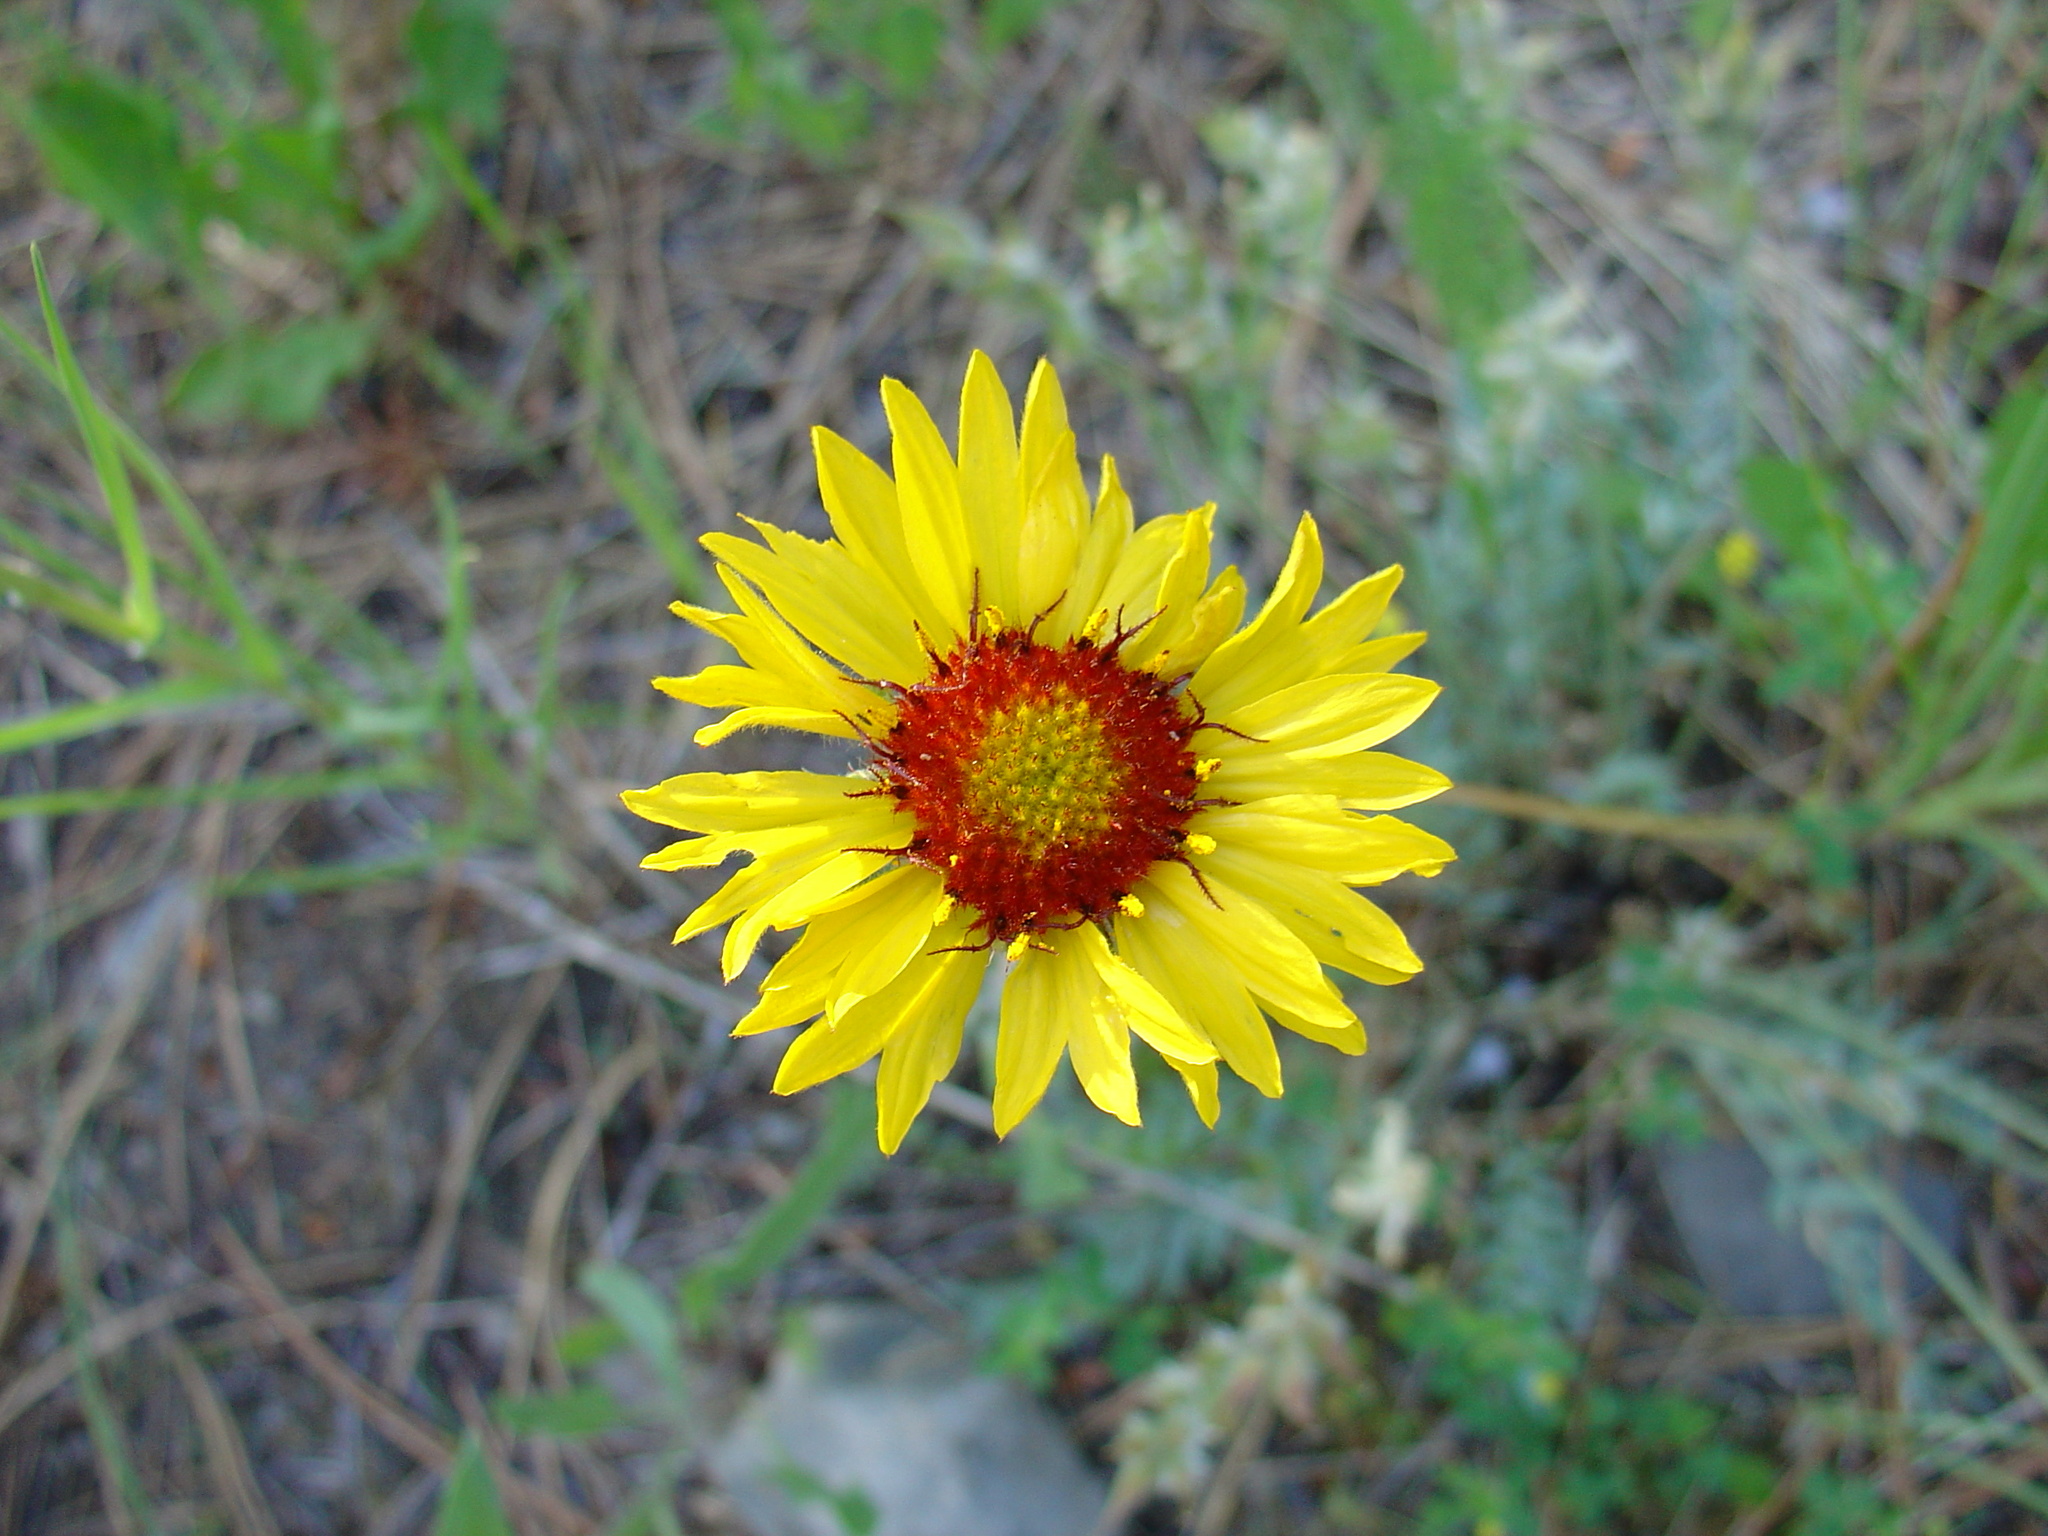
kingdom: Plantae
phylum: Tracheophyta
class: Magnoliopsida
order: Asterales
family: Asteraceae
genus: Gaillardia
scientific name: Gaillardia aristata
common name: Blanket-flower
